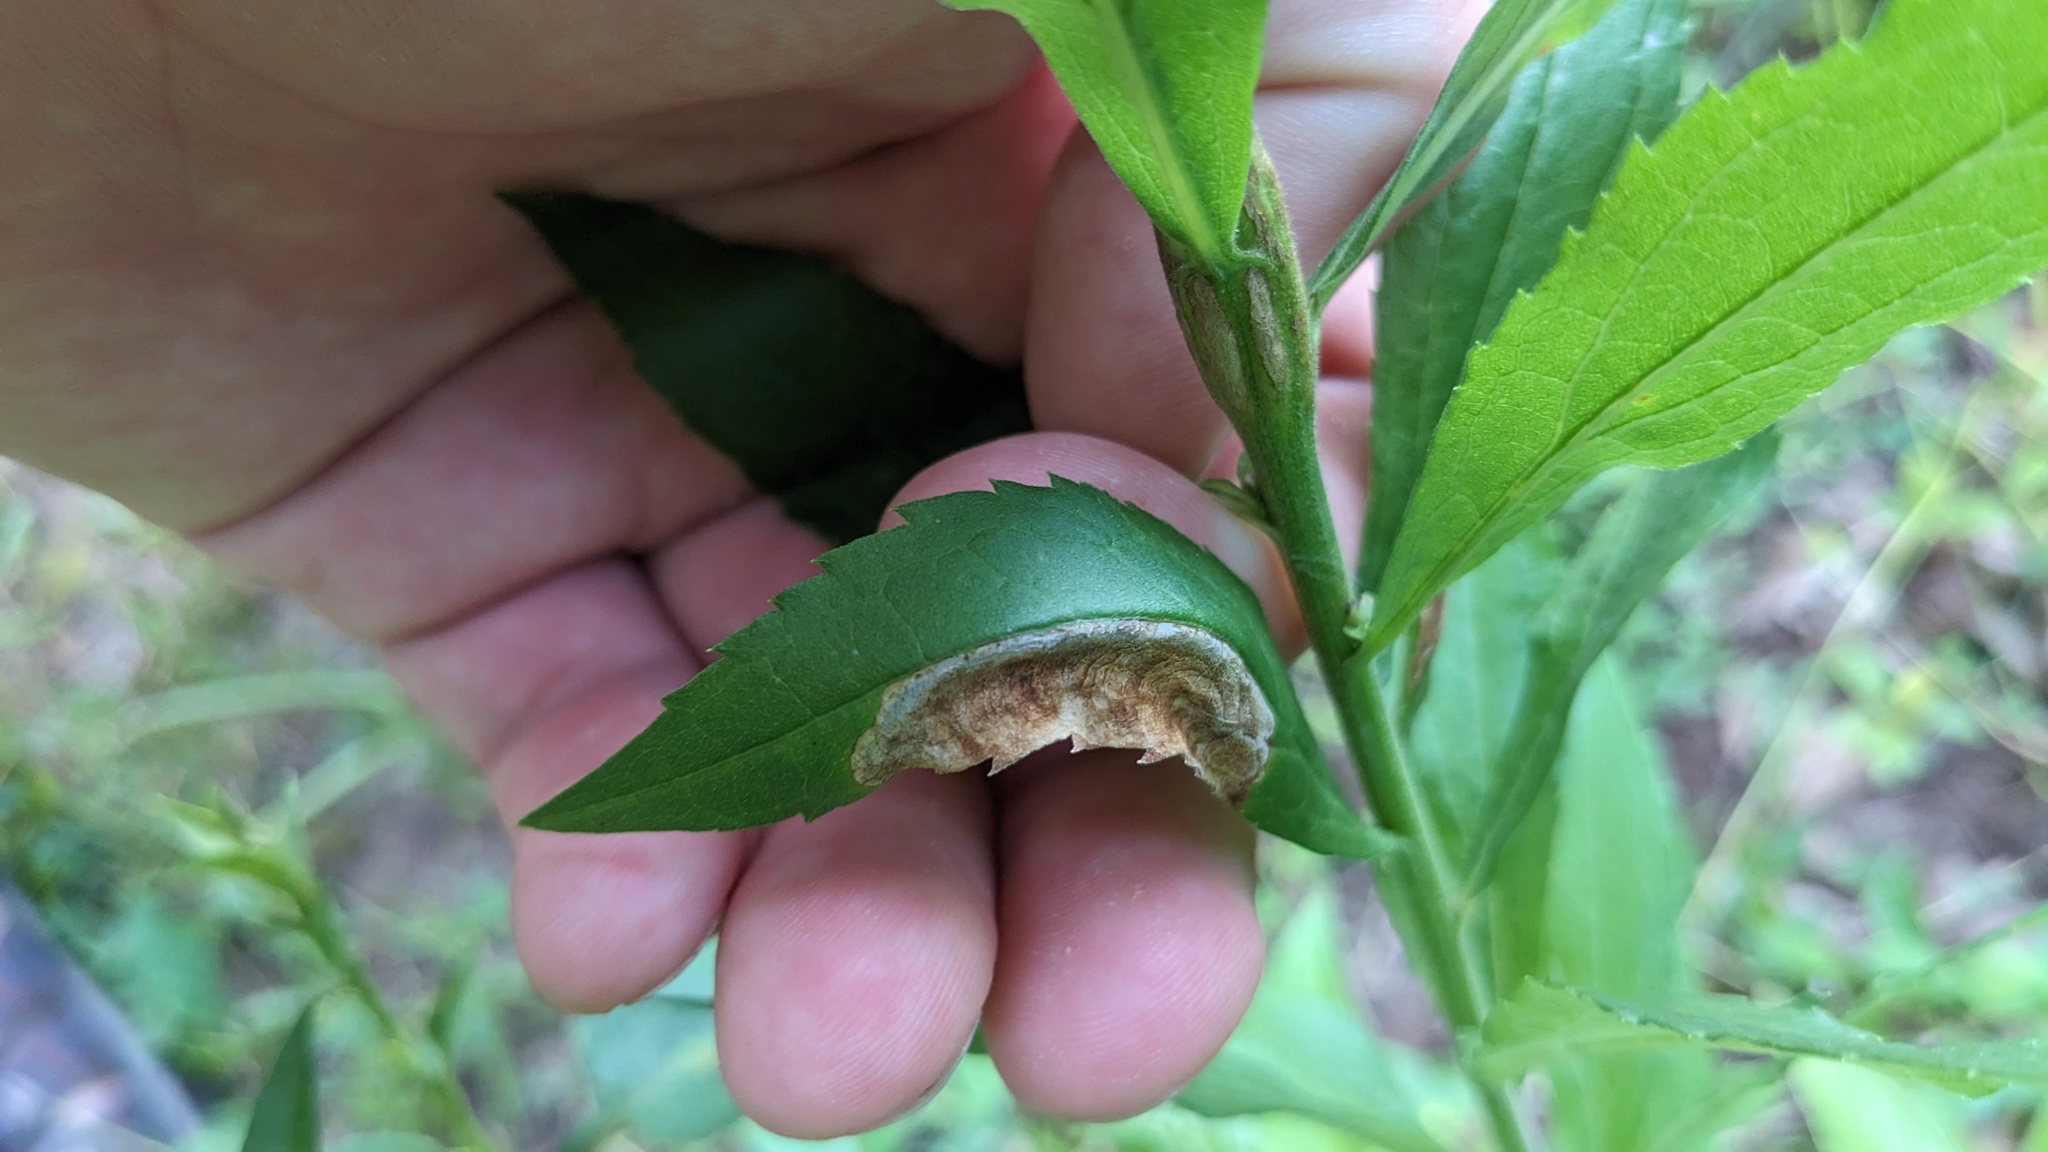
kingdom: Animalia
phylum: Arthropoda
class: Insecta
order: Diptera
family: Agromyzidae
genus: Nemorimyza
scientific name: Nemorimyza posticata
